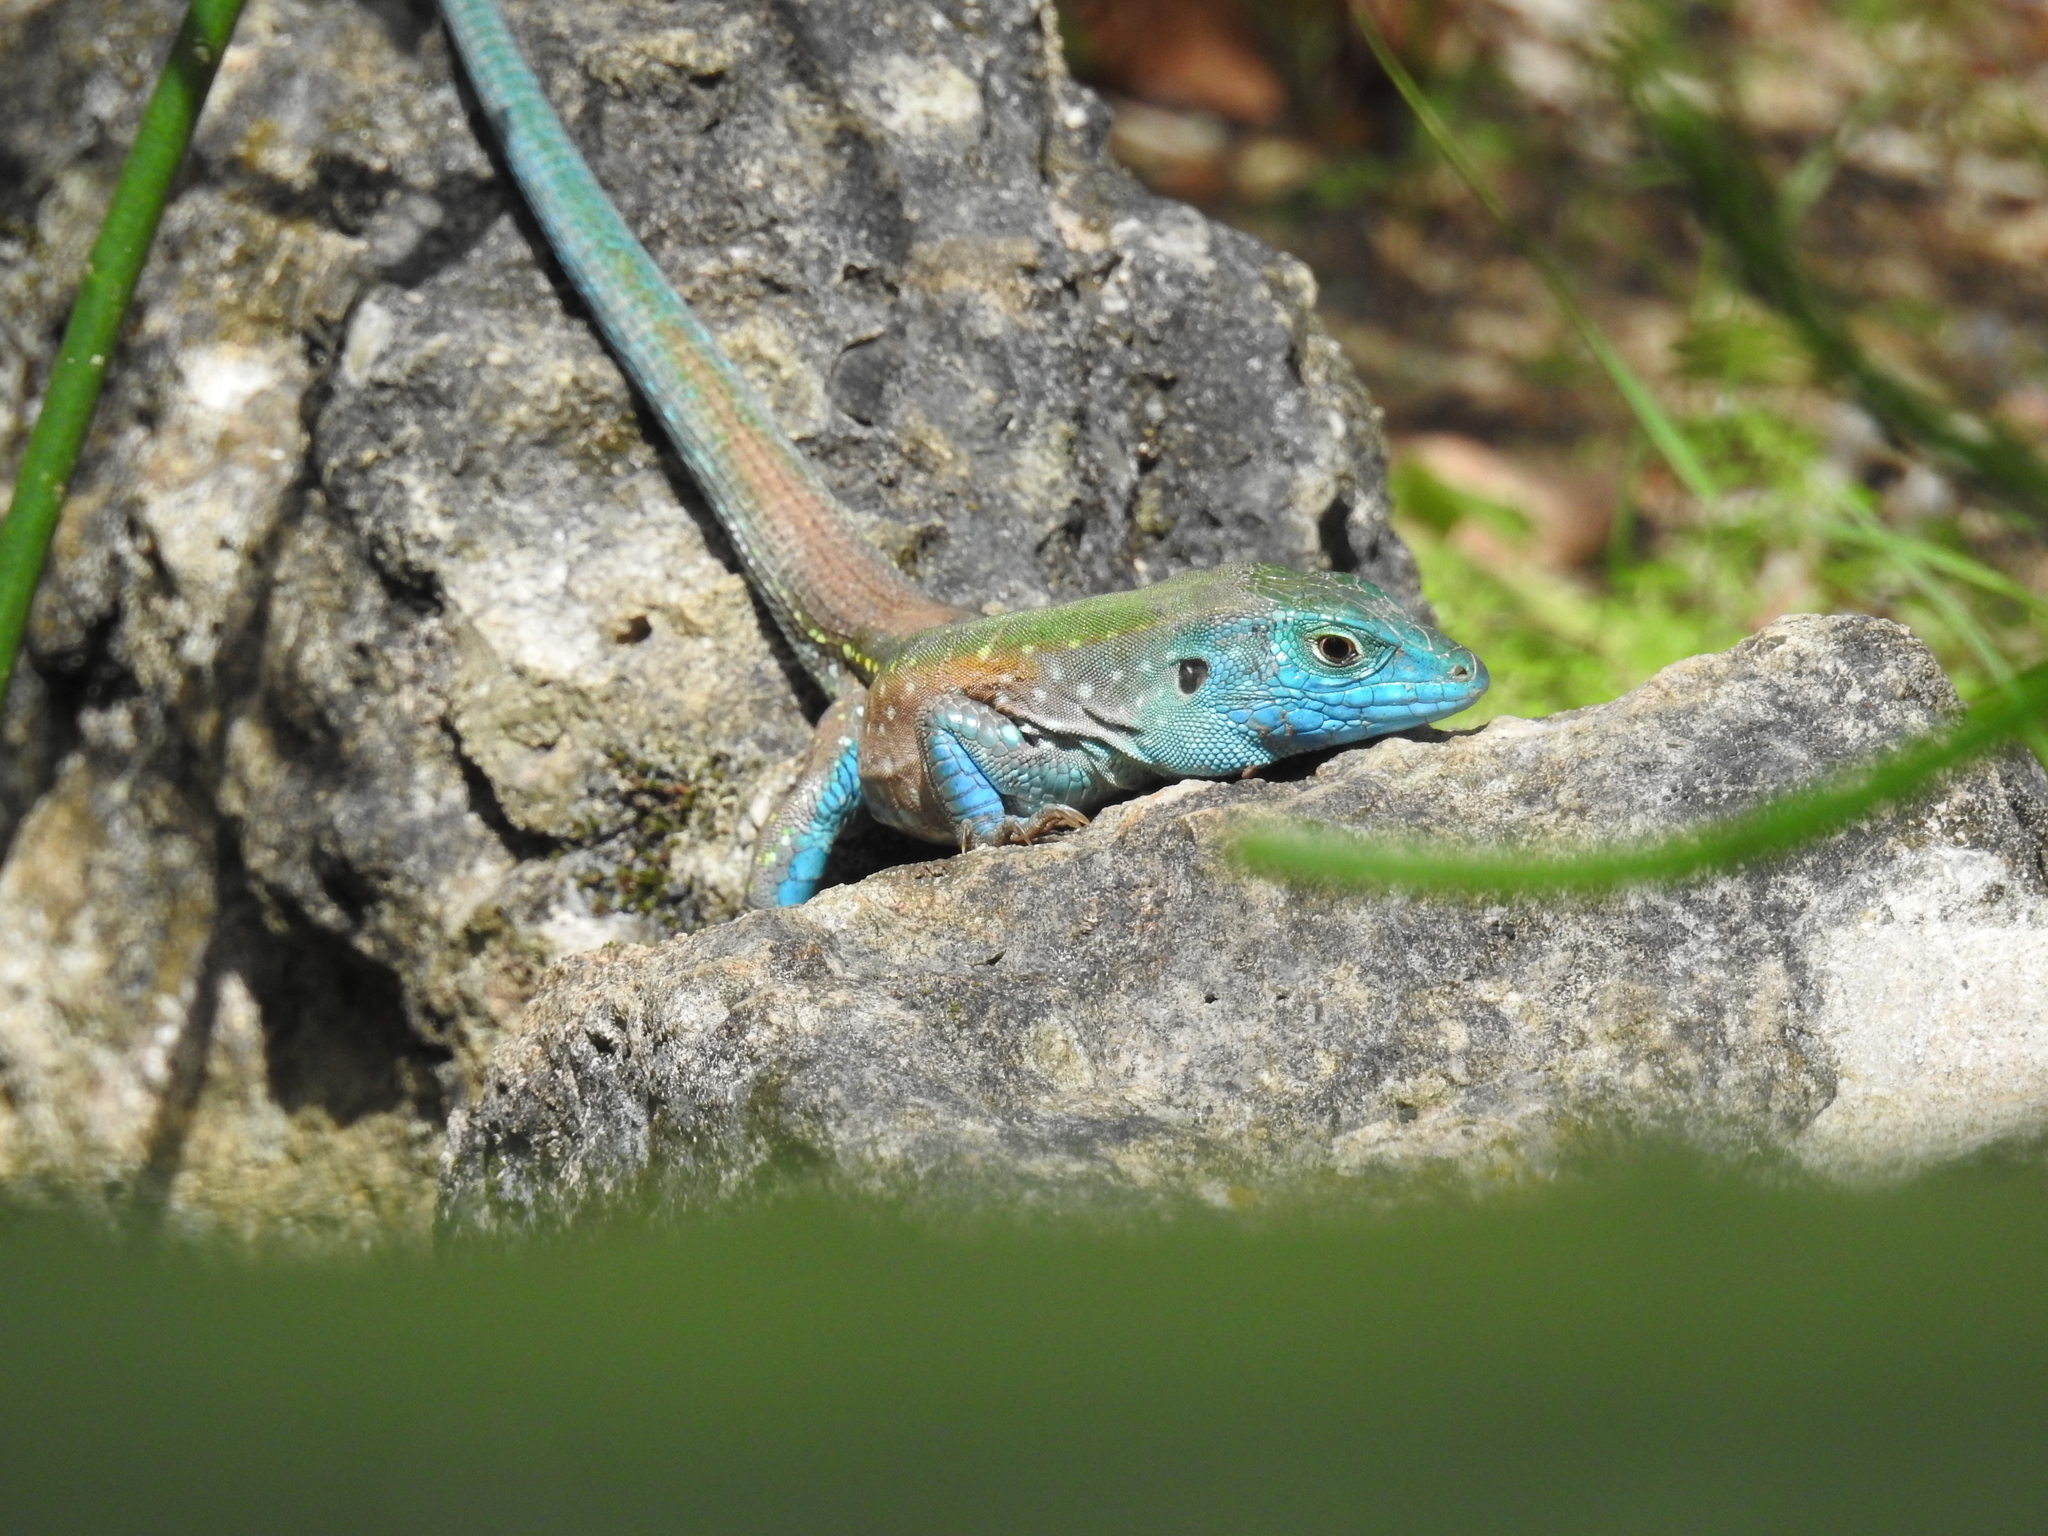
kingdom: Animalia
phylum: Chordata
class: Squamata
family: Teiidae
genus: Cnemidophorus
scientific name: Cnemidophorus gaigei
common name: Gaige’s rainbow lizard
